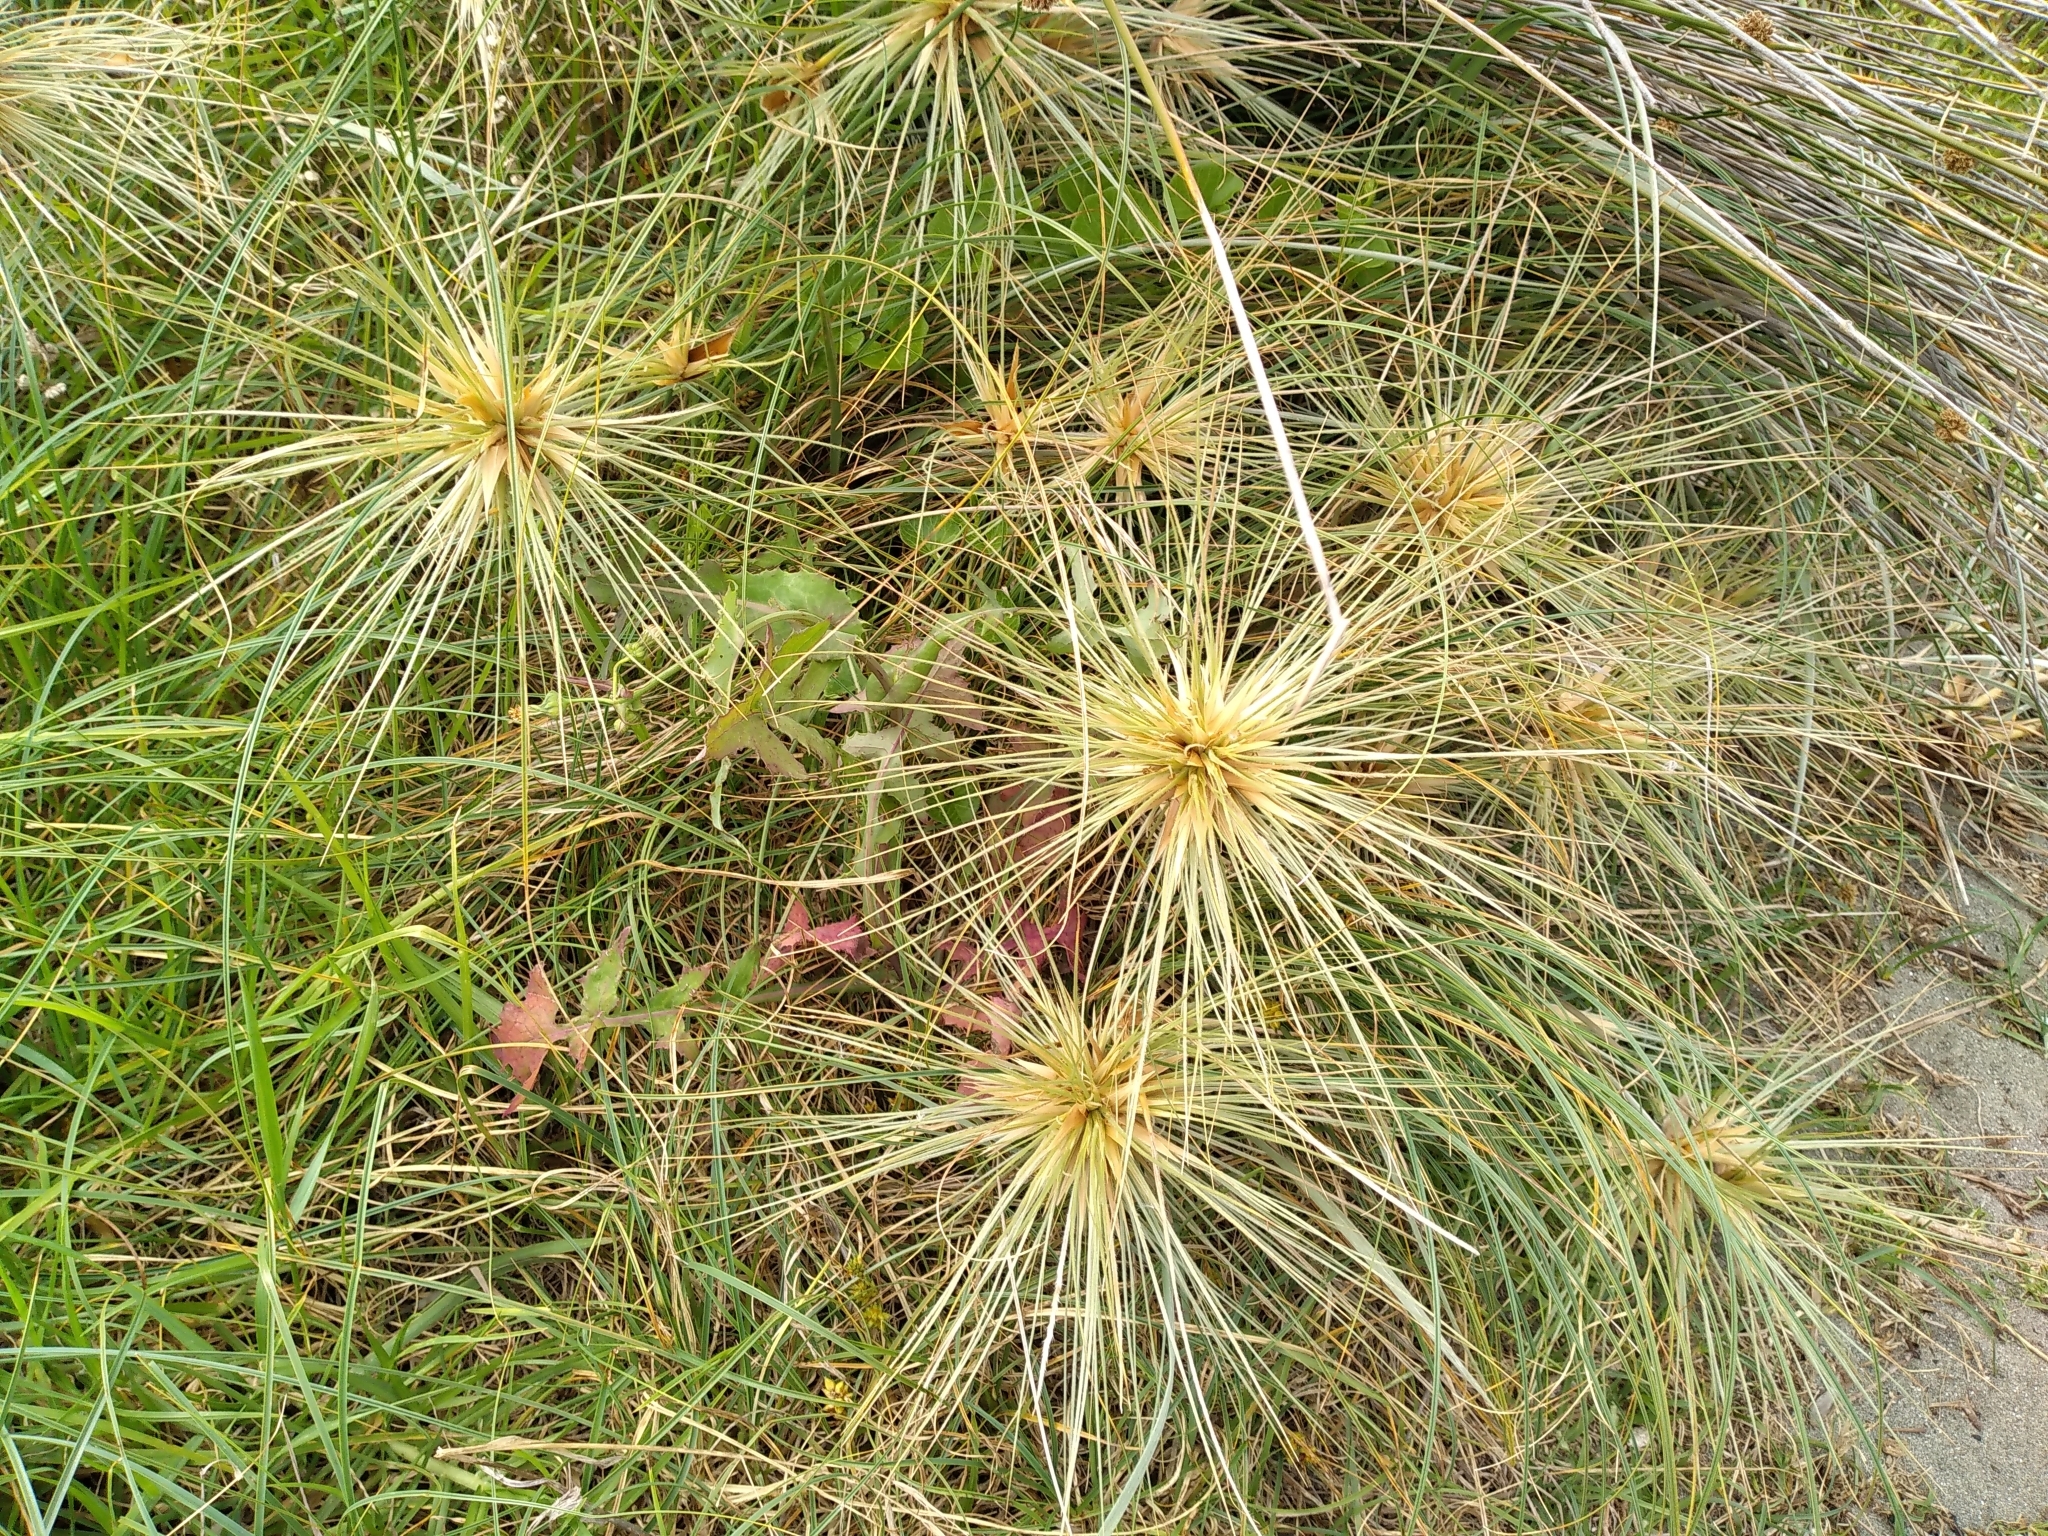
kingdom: Plantae
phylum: Tracheophyta
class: Liliopsida
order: Poales
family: Poaceae
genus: Spinifex
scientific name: Spinifex sericeus
